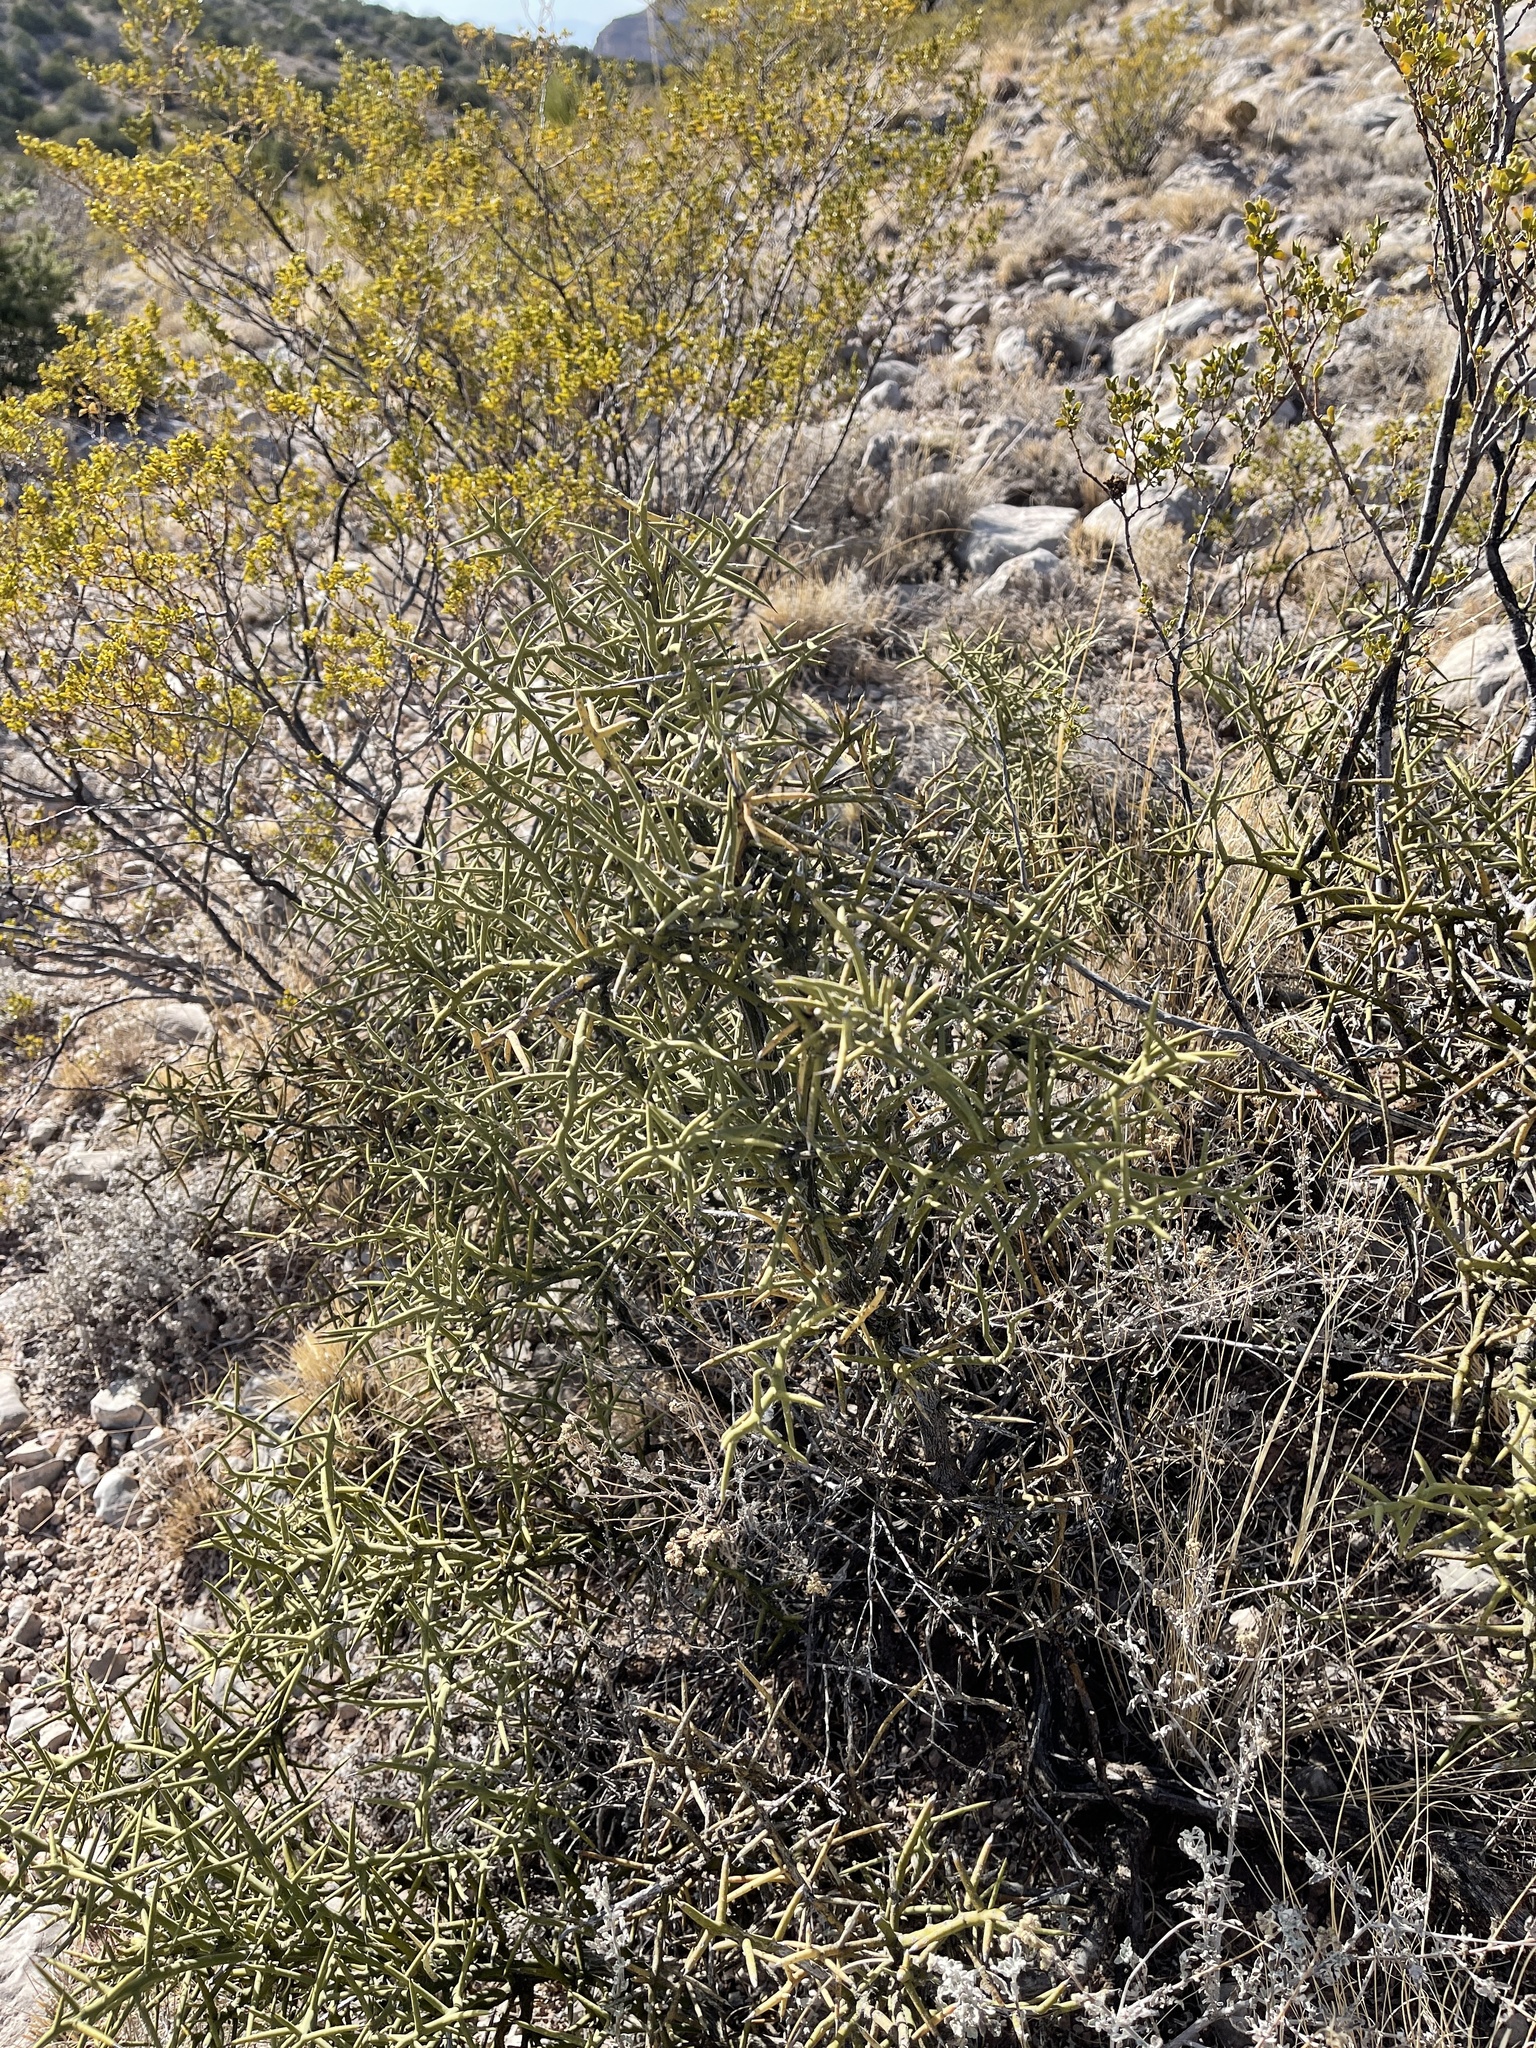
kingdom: Plantae
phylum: Tracheophyta
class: Magnoliopsida
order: Brassicales
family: Koeberliniaceae
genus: Koeberlinia
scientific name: Koeberlinia spinosa
